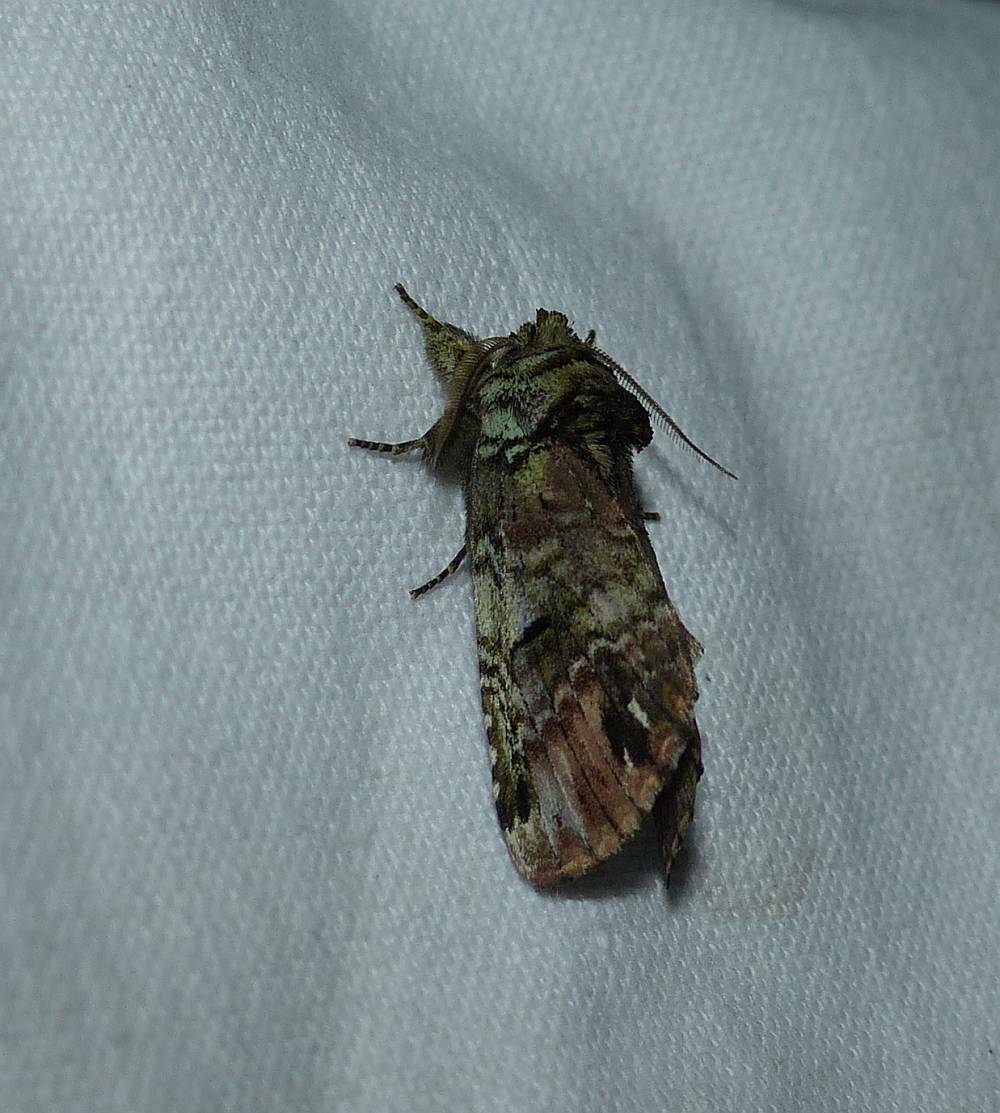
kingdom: Animalia
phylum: Arthropoda
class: Insecta
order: Lepidoptera
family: Notodontidae
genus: Schizura
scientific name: Schizura
